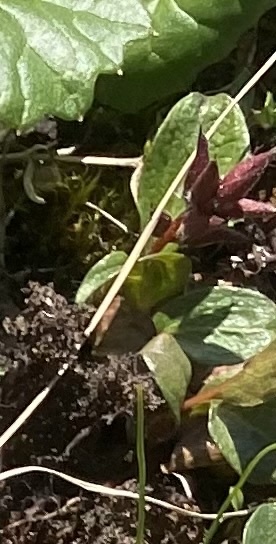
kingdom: Plantae
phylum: Tracheophyta
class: Magnoliopsida
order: Malpighiales
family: Salicaceae
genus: Salix
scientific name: Salix polaris
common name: Polar willow
